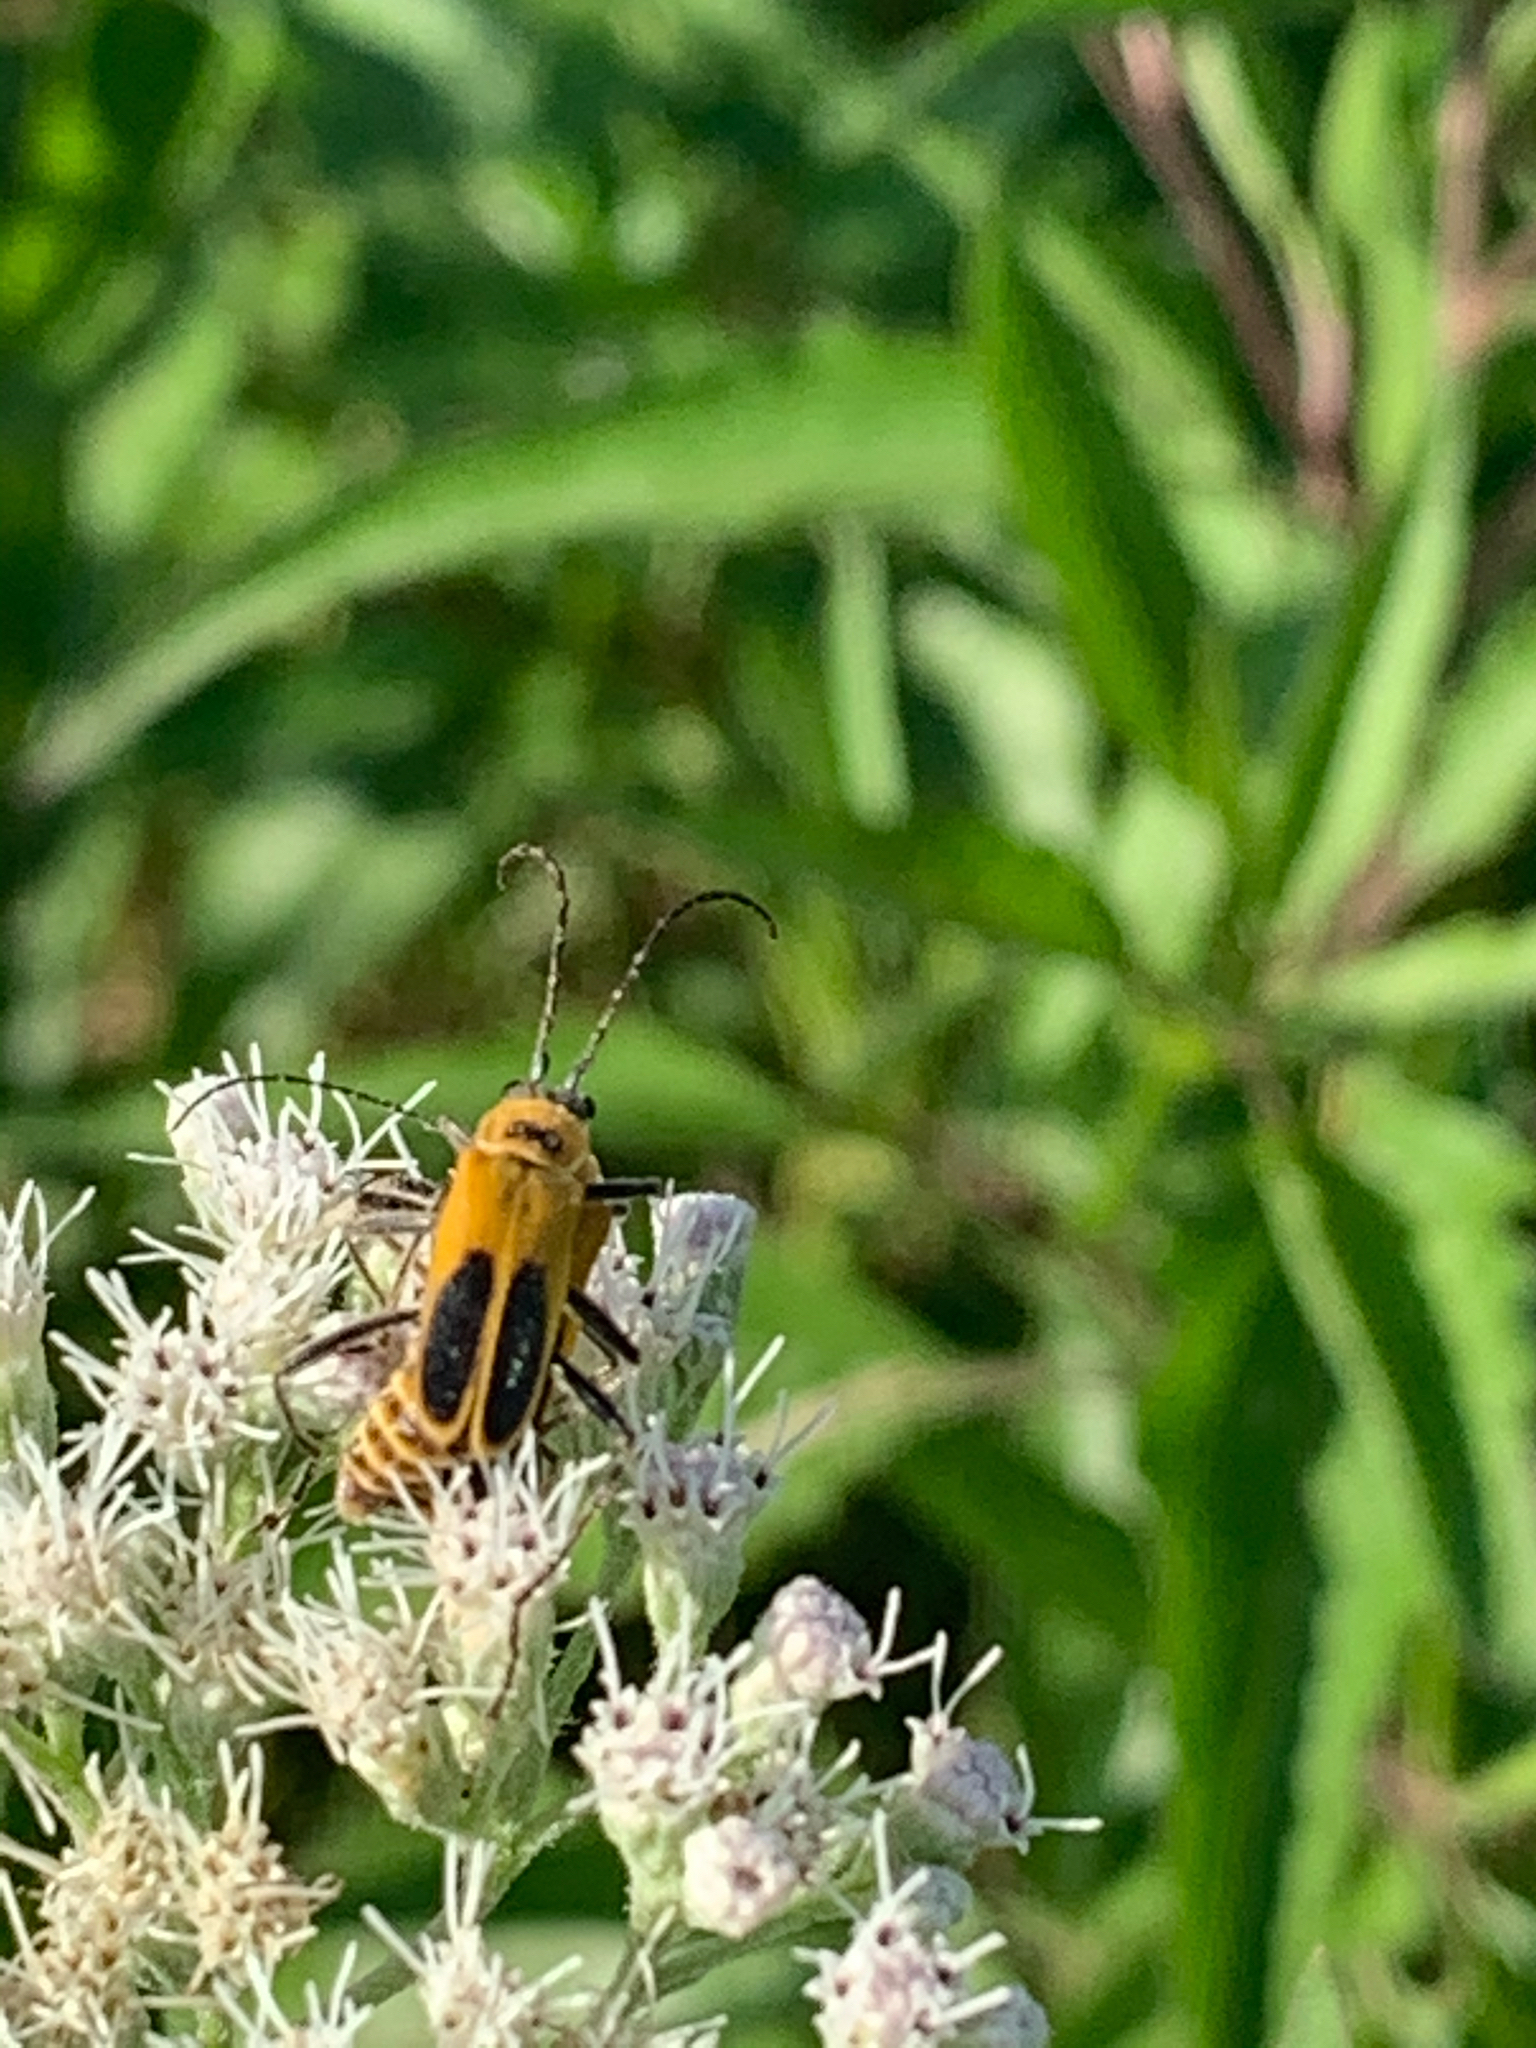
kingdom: Animalia
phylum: Arthropoda
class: Insecta
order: Coleoptera
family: Cantharidae
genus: Chauliognathus
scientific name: Chauliognathus pensylvanicus
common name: Goldenrod soldier beetle
